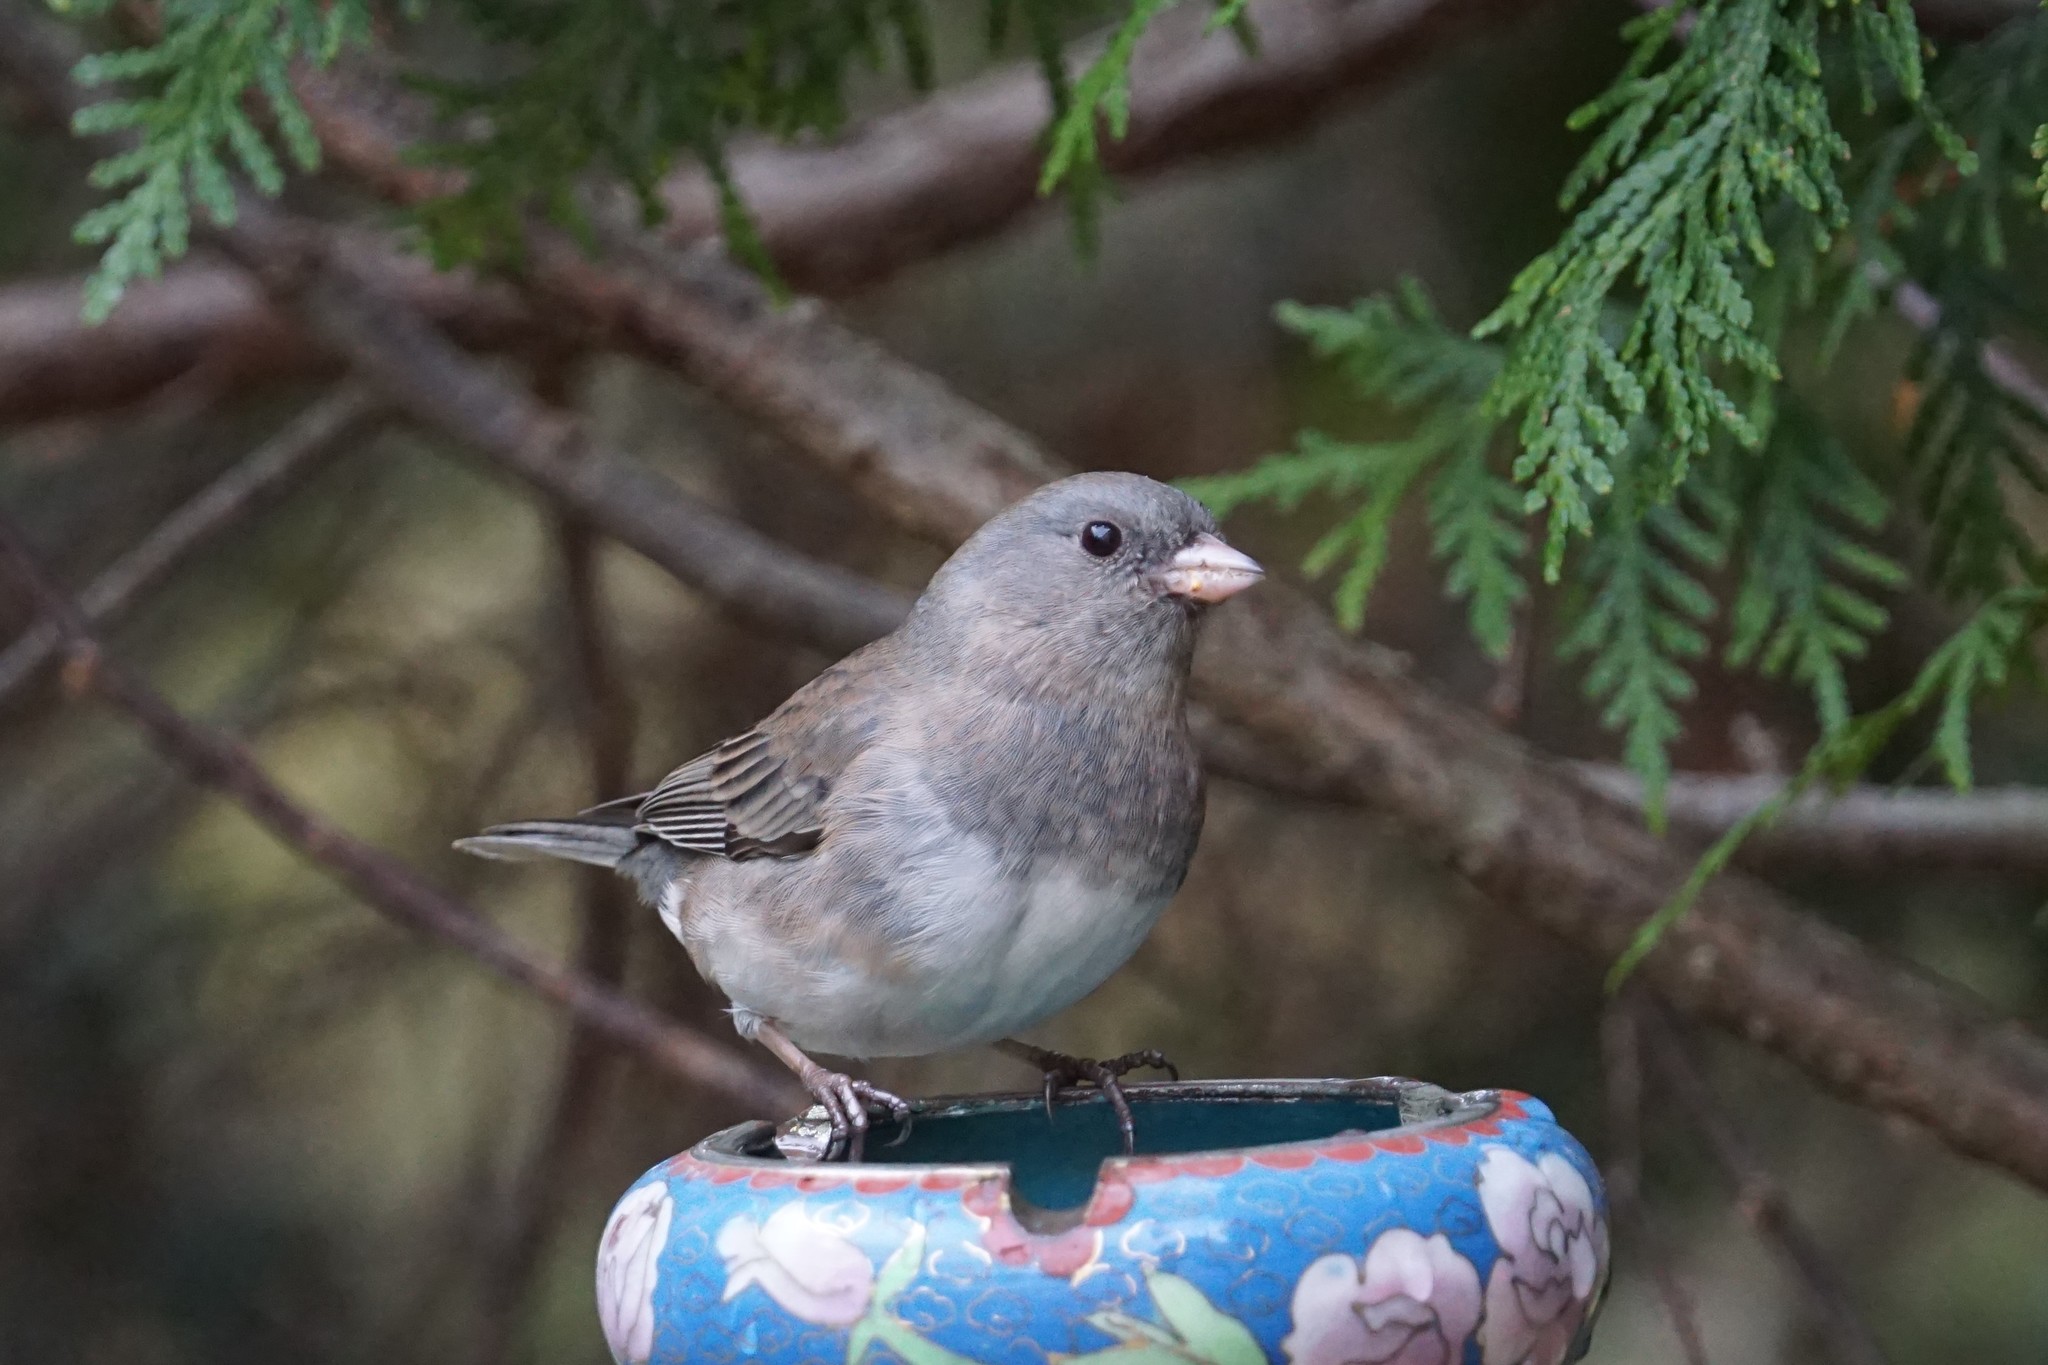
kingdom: Animalia
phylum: Chordata
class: Aves
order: Passeriformes
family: Passerellidae
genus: Junco
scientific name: Junco hyemalis
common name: Dark-eyed junco
